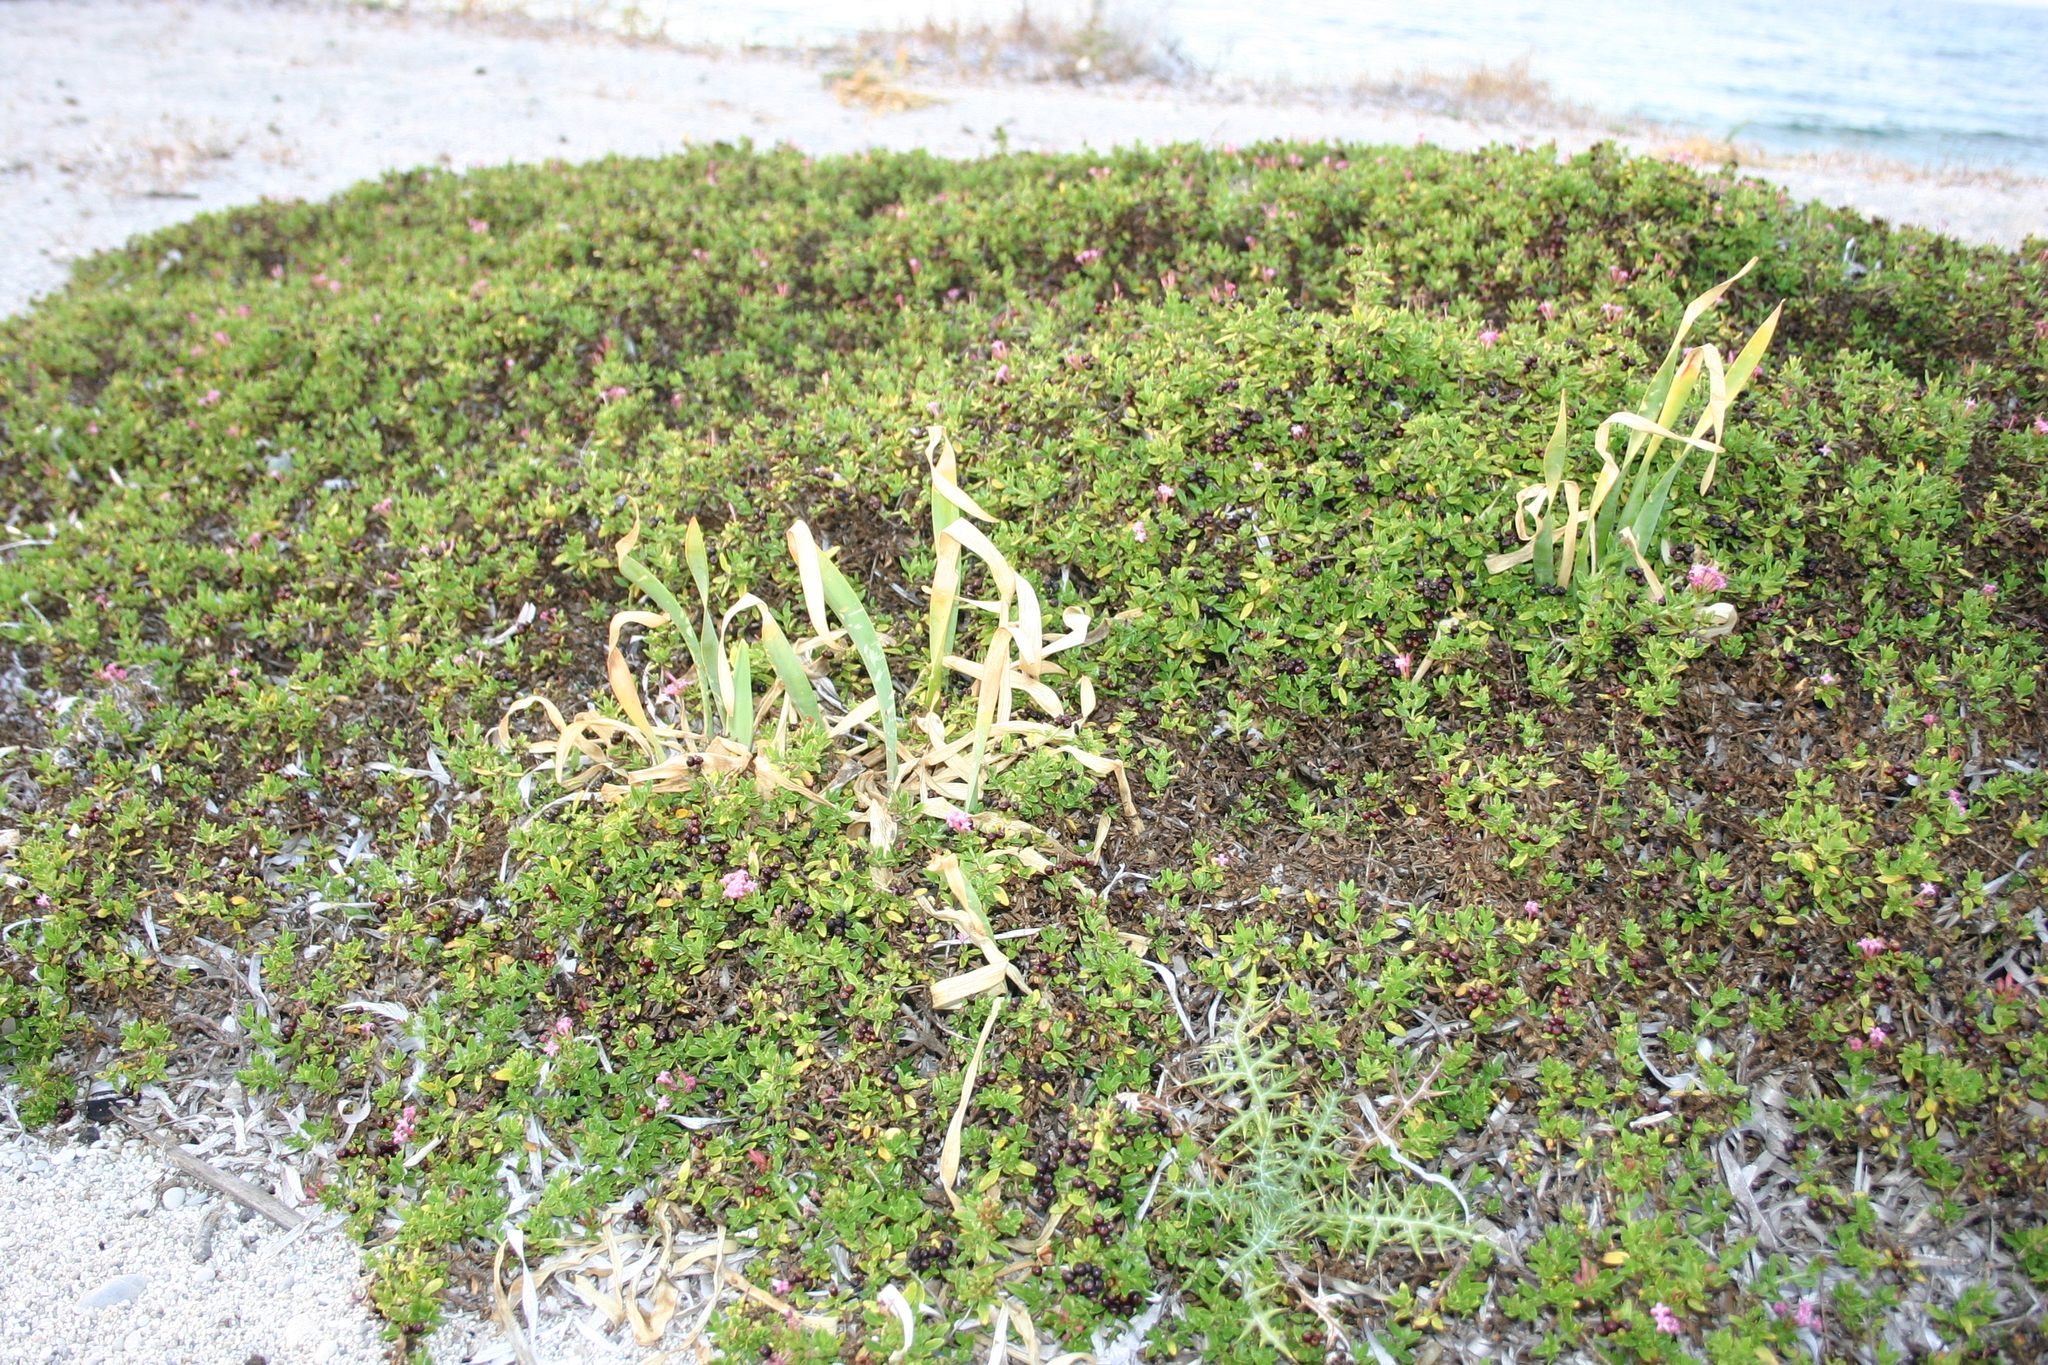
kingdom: Plantae
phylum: Tracheophyta
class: Magnoliopsida
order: Gentianales
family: Rubiaceae
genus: Plocama
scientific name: Plocama calabrica
